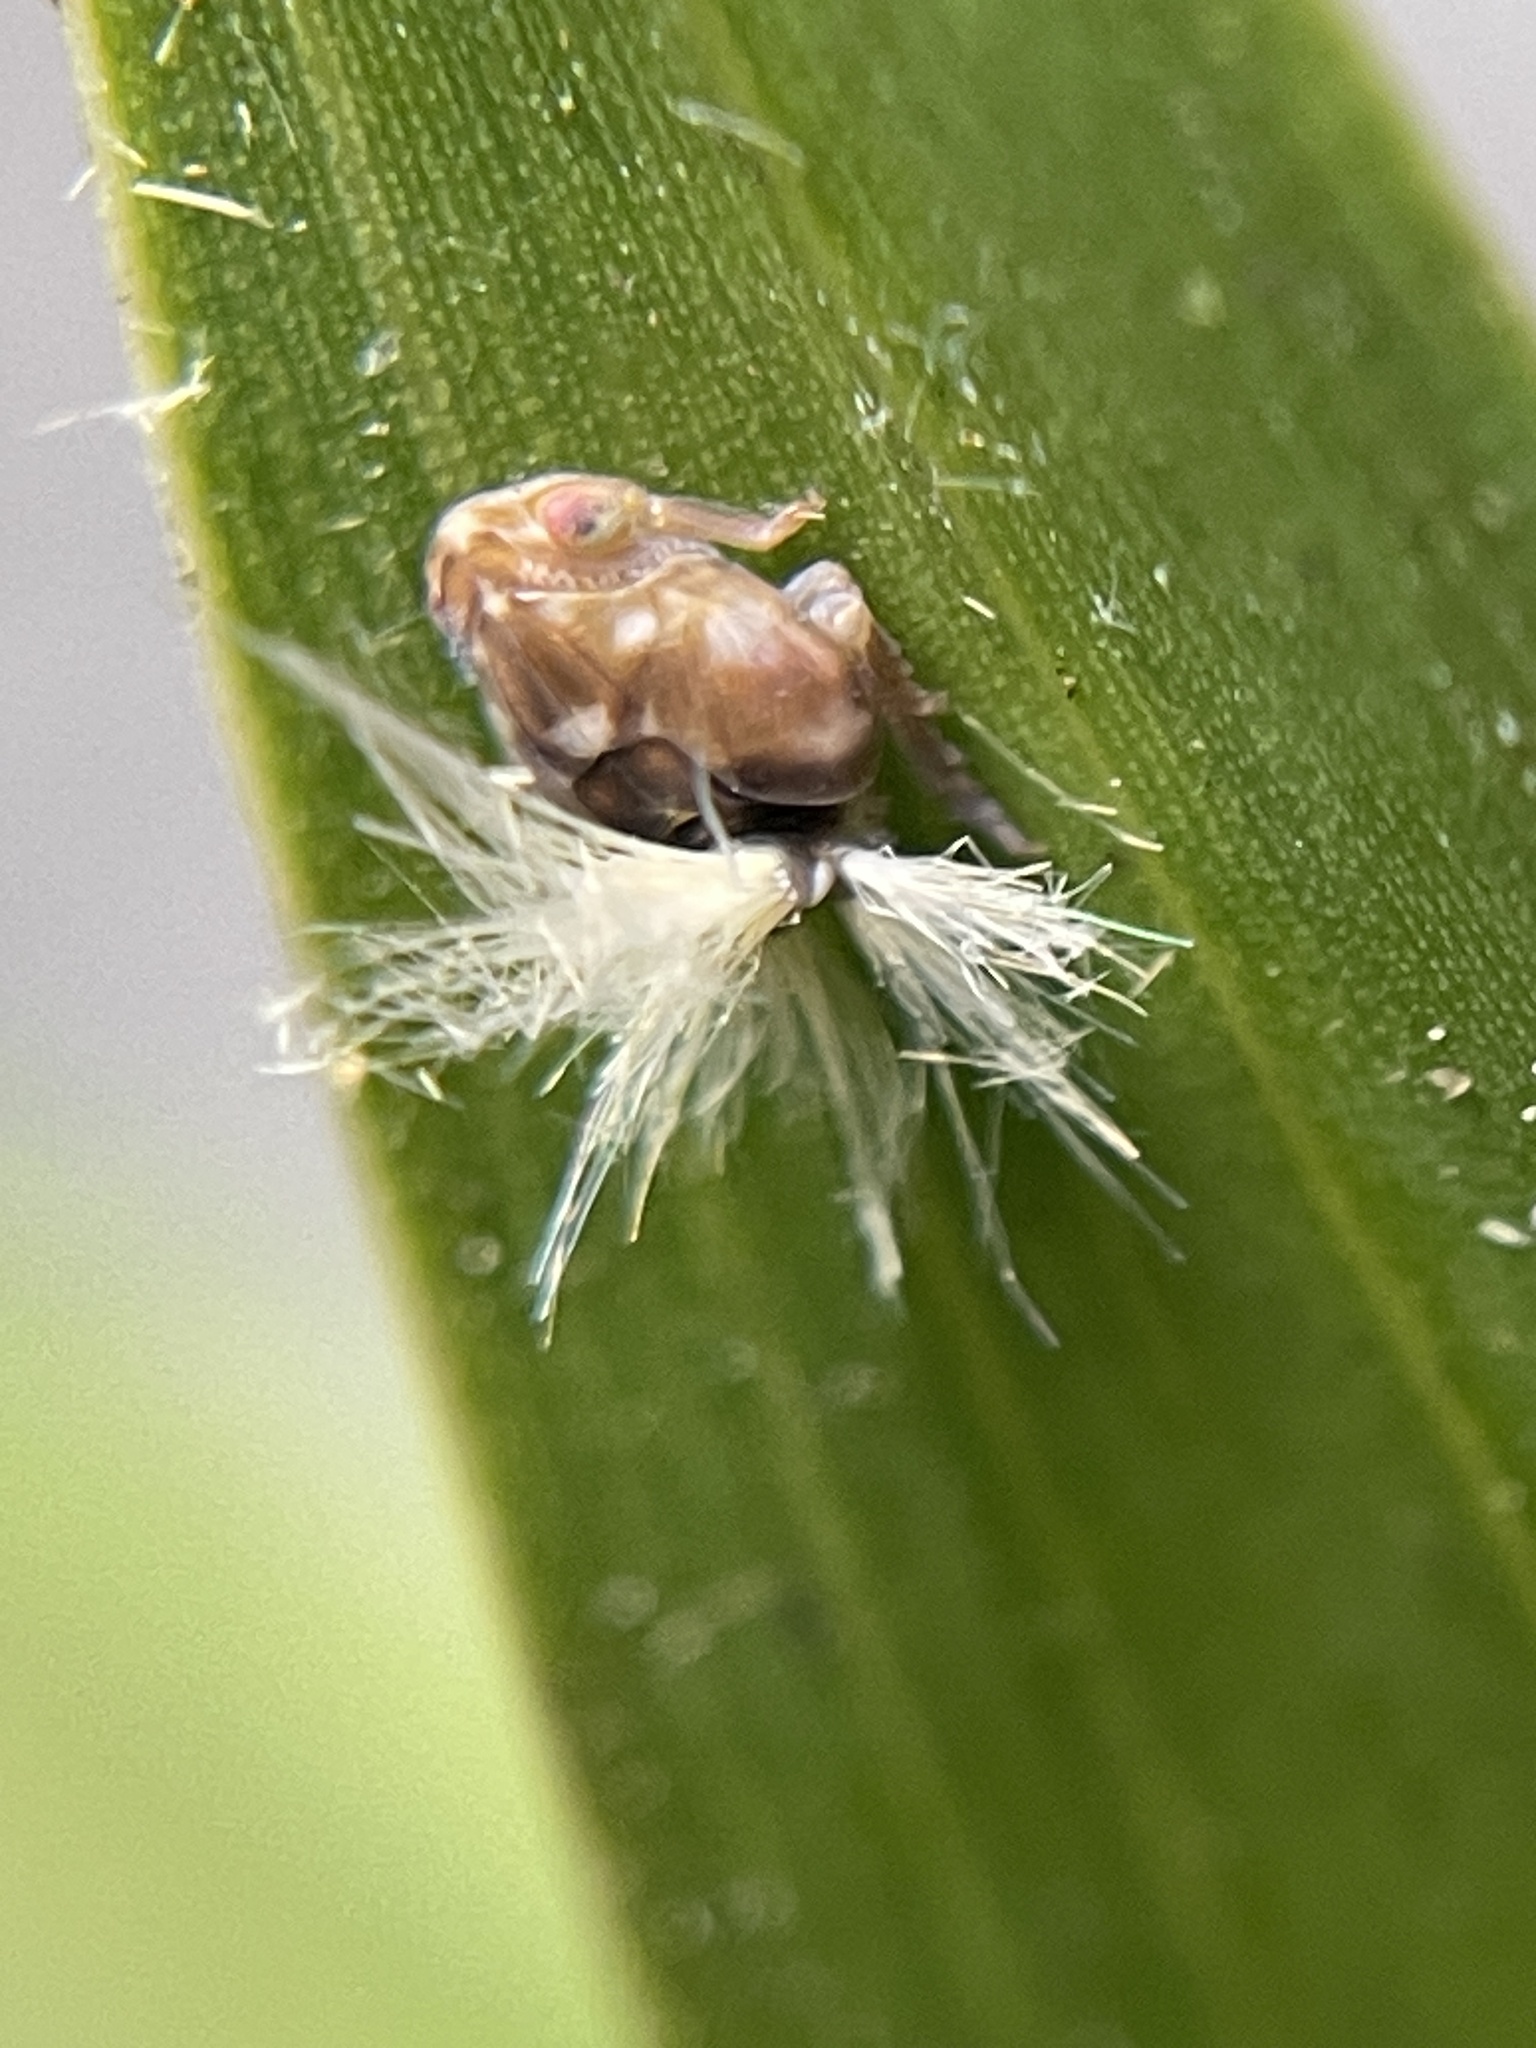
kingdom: Animalia
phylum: Arthropoda
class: Insecta
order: Hemiptera
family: Ricaniidae
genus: Scolypopa
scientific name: Scolypopa australis
